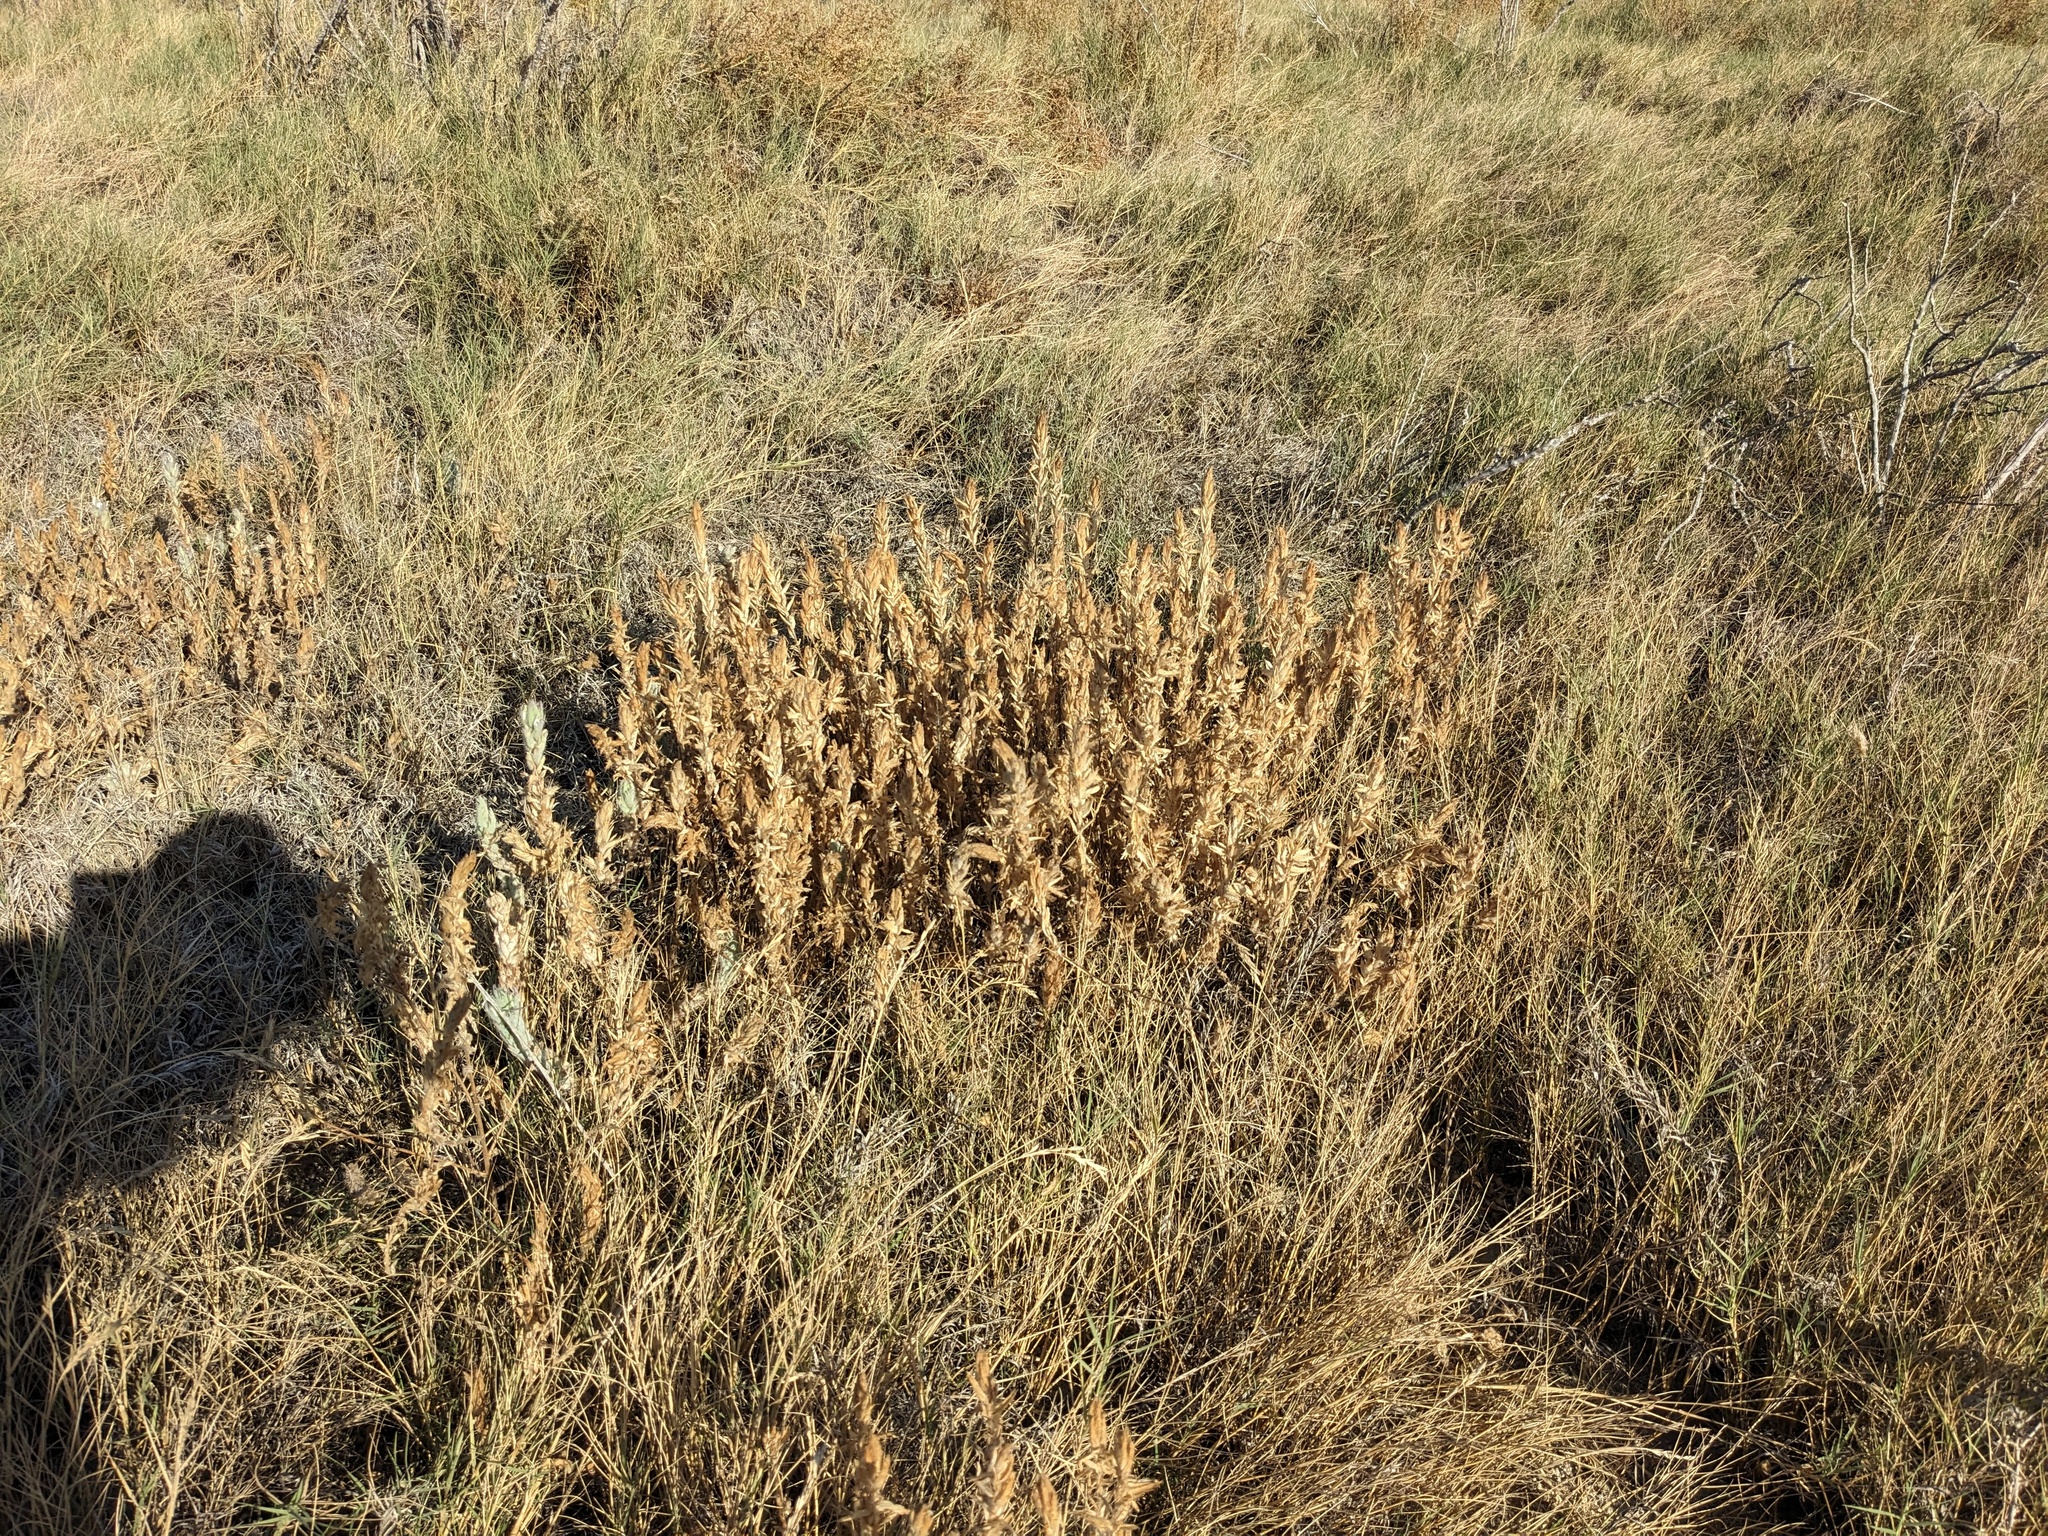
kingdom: Plantae
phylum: Tracheophyta
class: Magnoliopsida
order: Lamiales
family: Orobanchaceae
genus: Chloropyron
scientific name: Chloropyron molle
